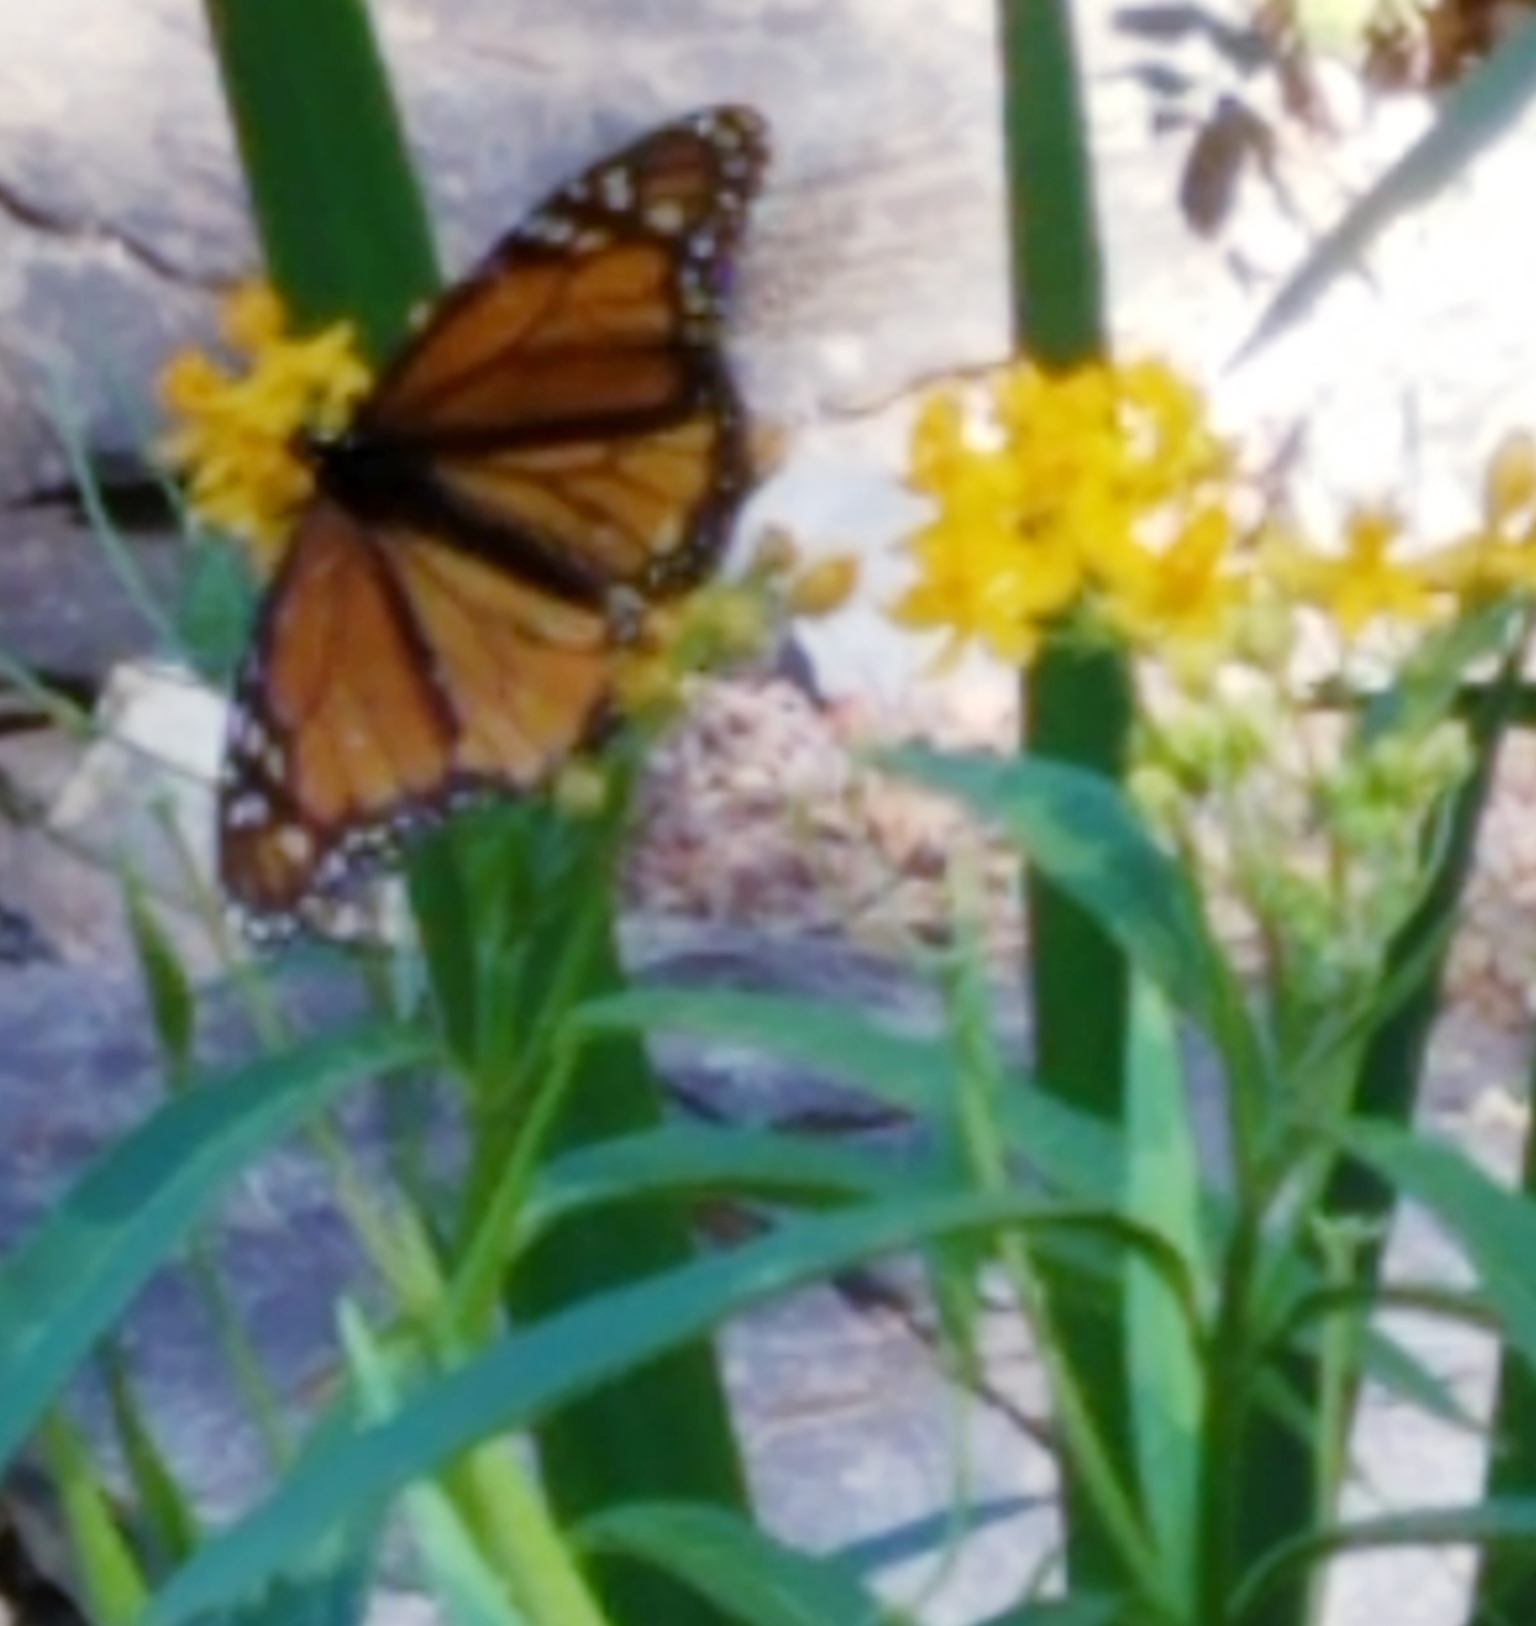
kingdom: Animalia
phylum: Arthropoda
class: Insecta
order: Lepidoptera
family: Nymphalidae
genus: Danaus
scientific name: Danaus plexippus
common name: Monarch
